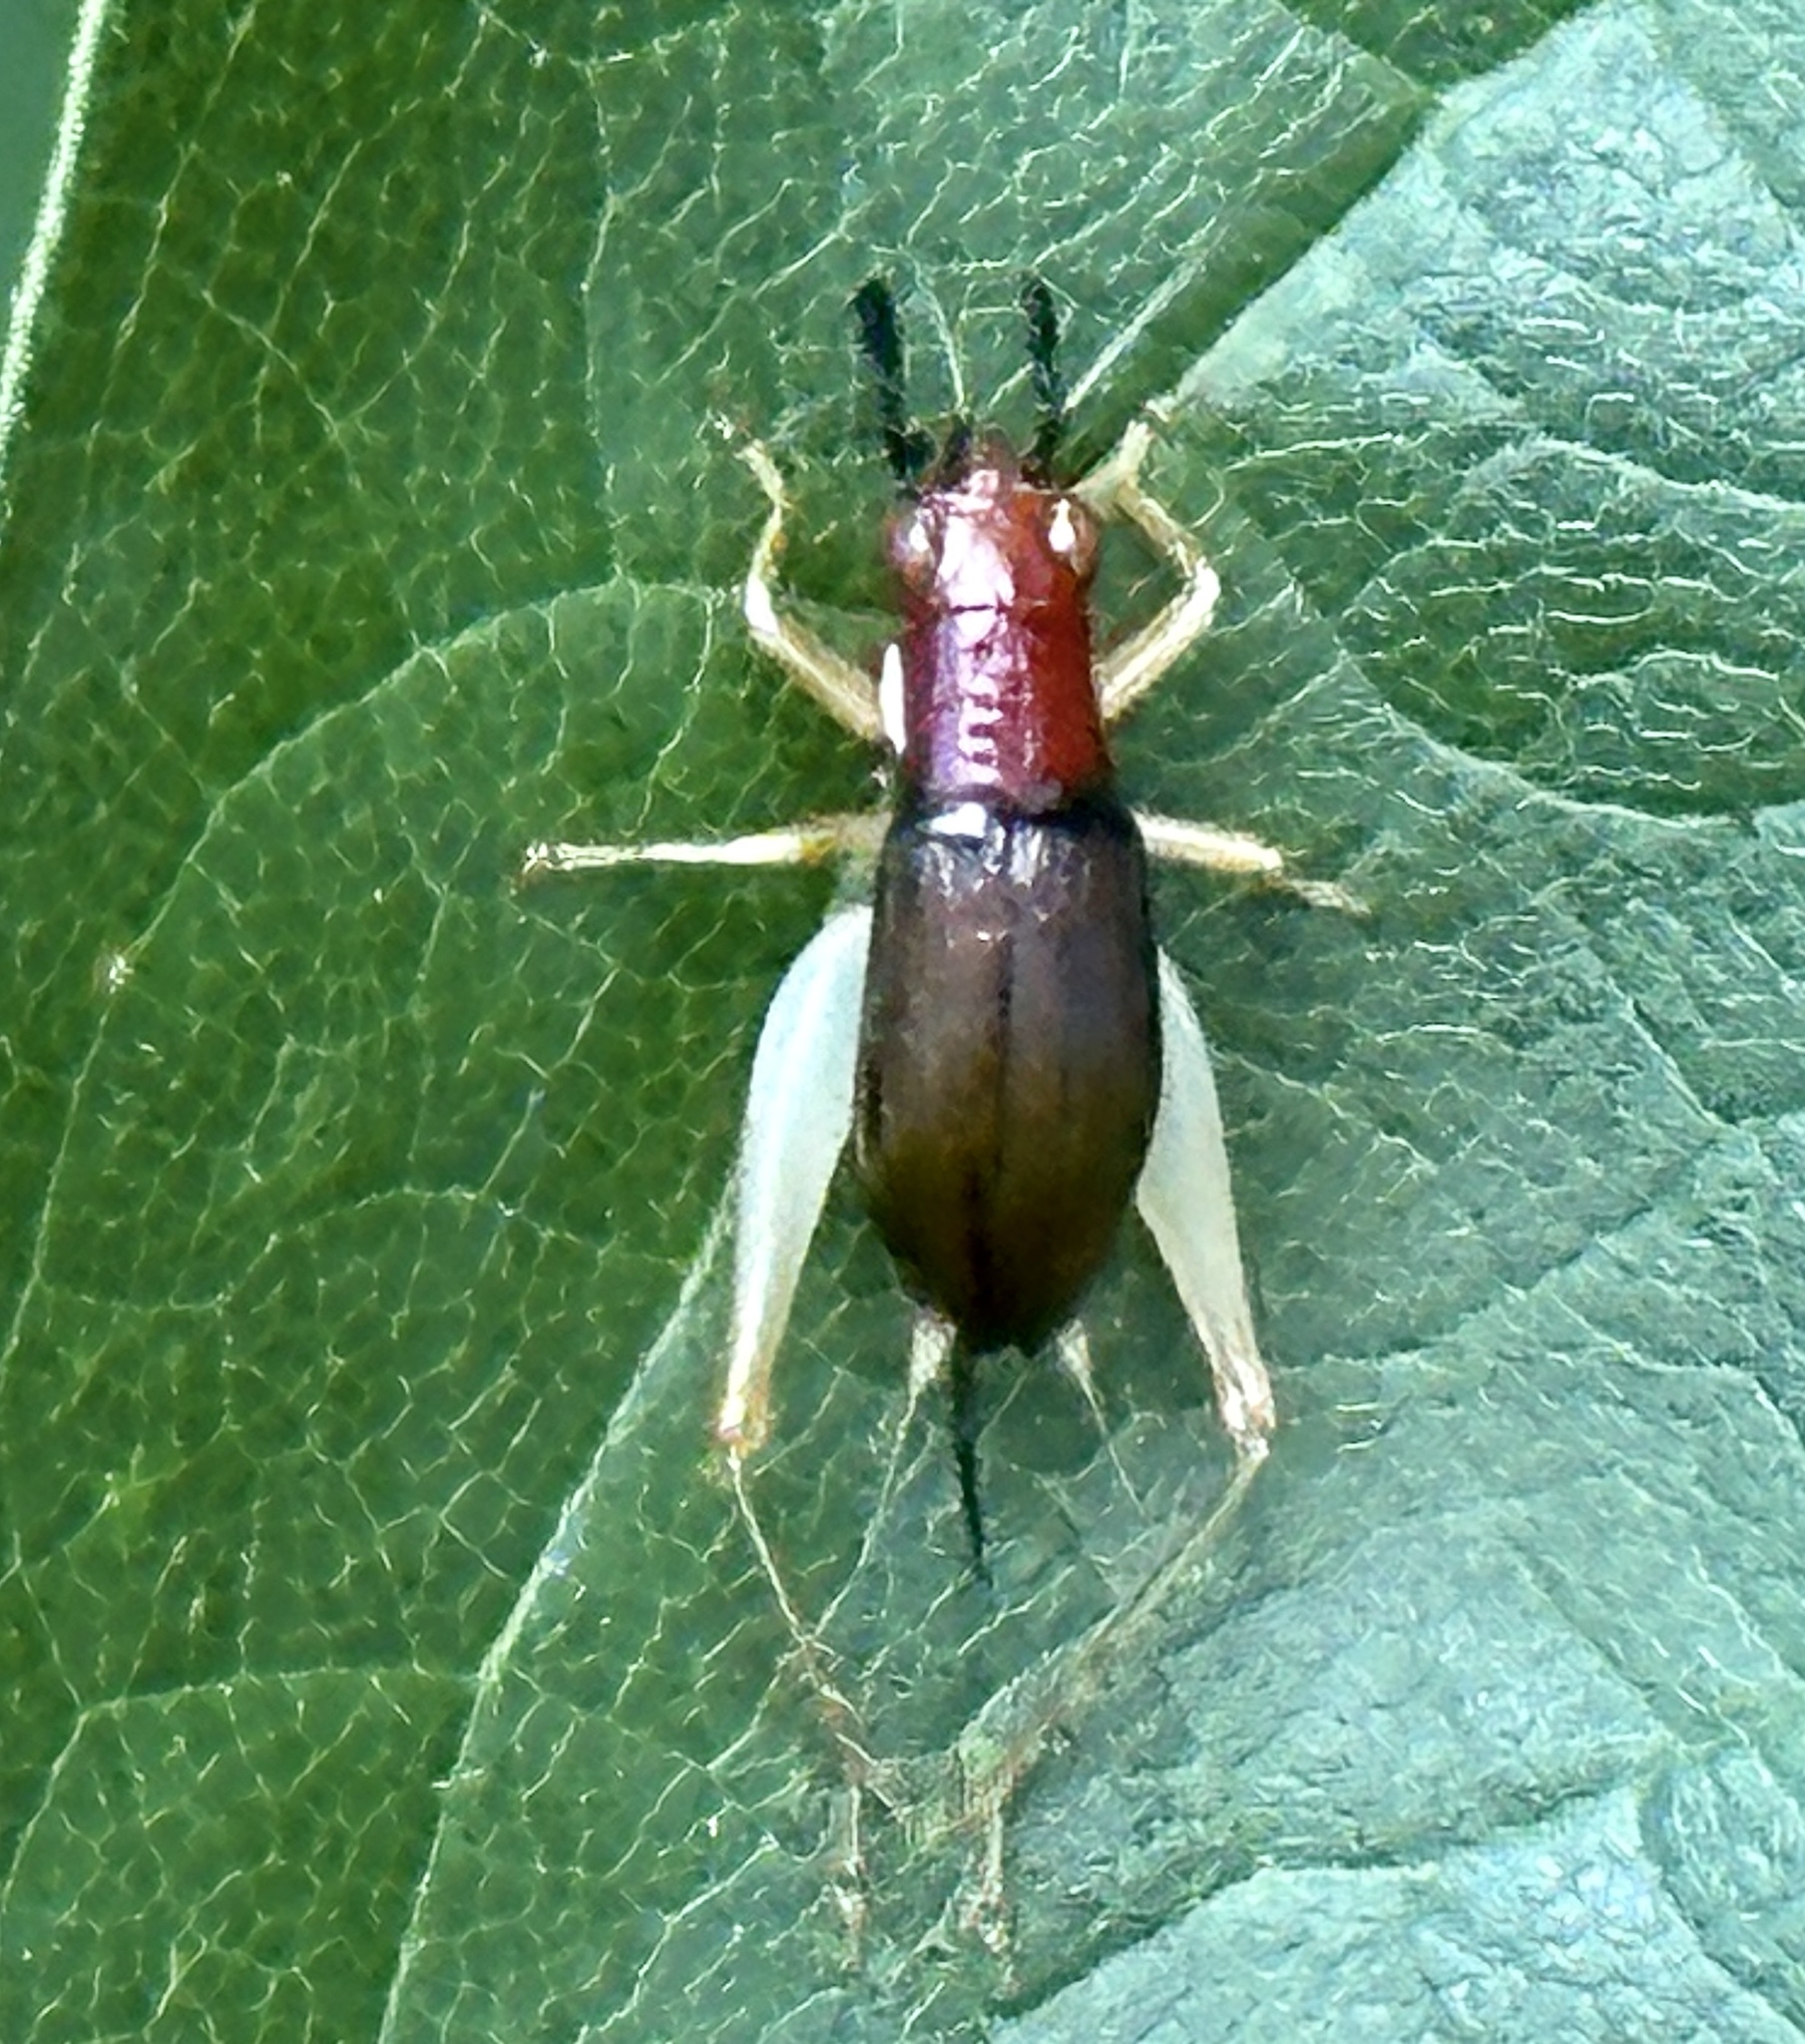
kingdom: Animalia
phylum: Arthropoda
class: Insecta
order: Orthoptera
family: Trigonidiidae
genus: Phyllopalpus
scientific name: Phyllopalpus pulchellus
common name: Handsome trig
